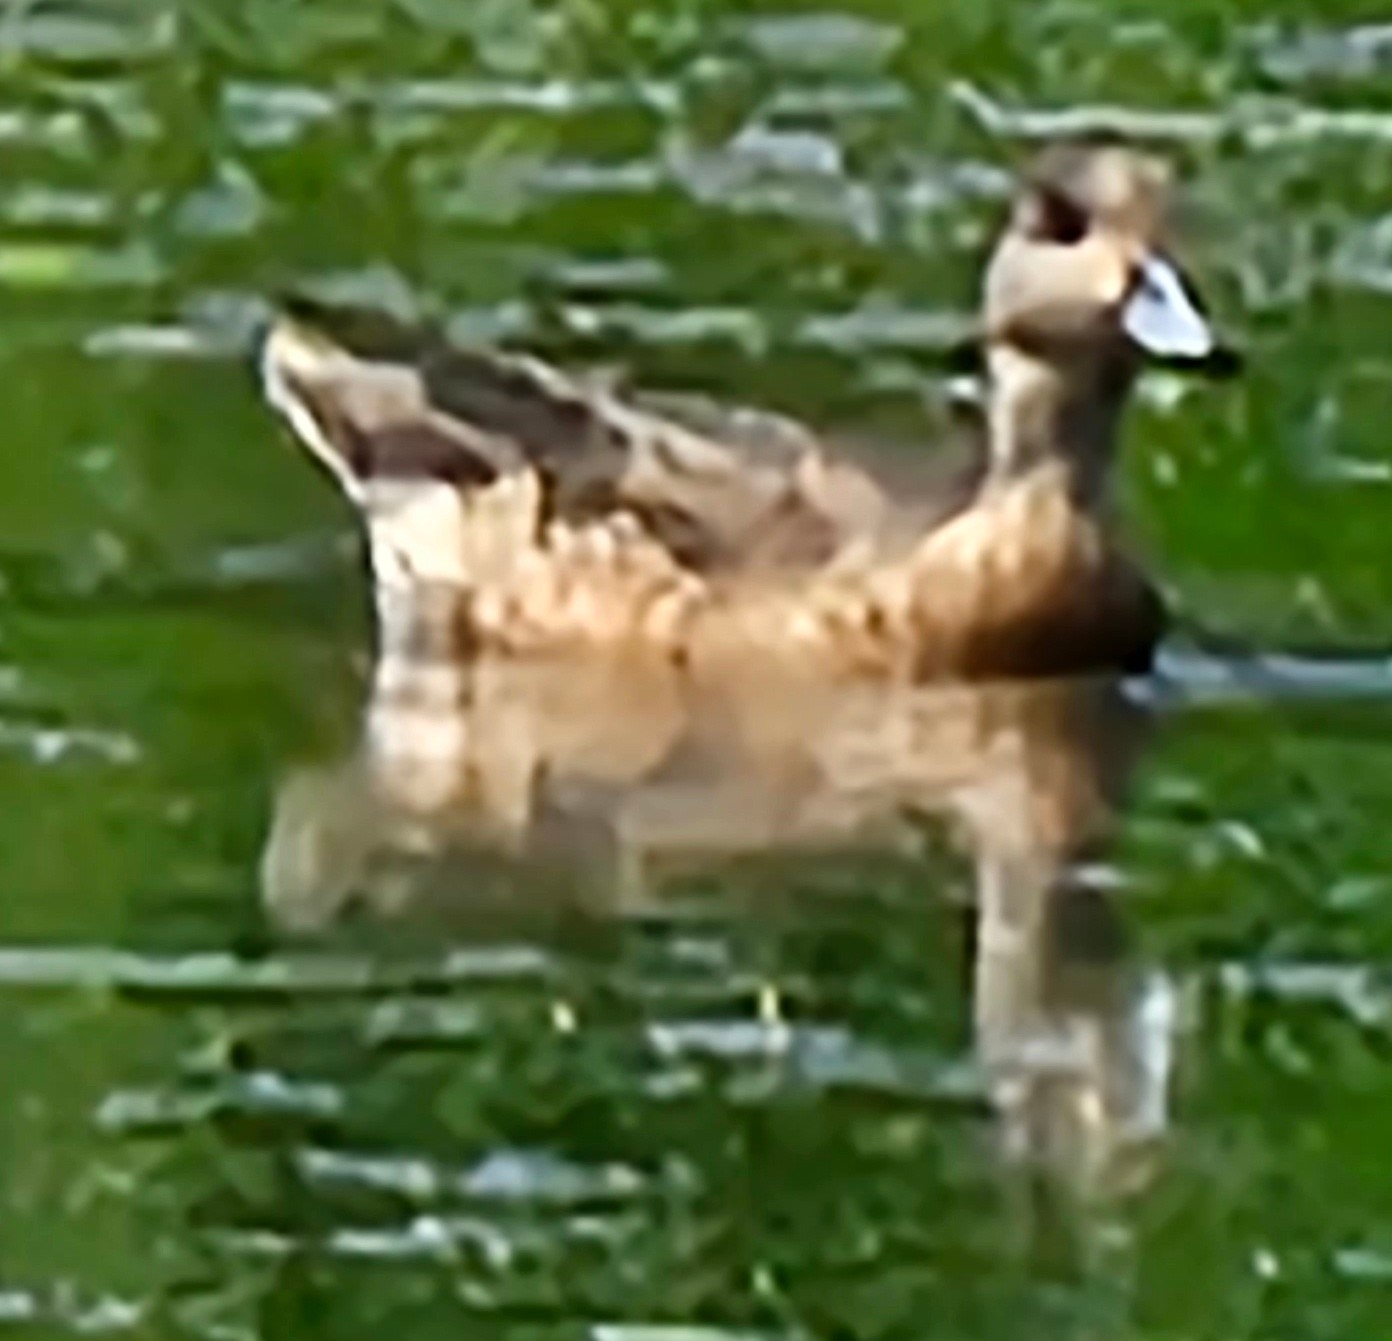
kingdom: Animalia
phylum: Chordata
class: Aves
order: Anseriformes
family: Anatidae
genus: Mareca
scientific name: Mareca americana
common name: American wigeon
